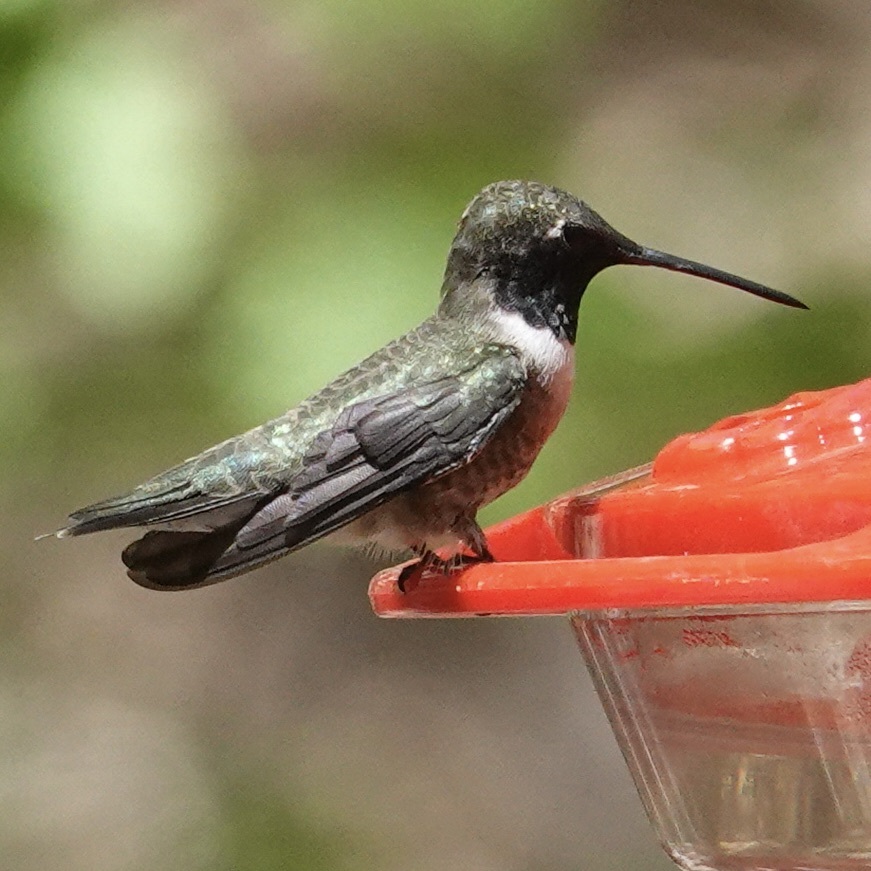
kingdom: Animalia
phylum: Chordata
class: Aves
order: Apodiformes
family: Trochilidae
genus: Archilochus
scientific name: Archilochus alexandri
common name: Black-chinned hummingbird
